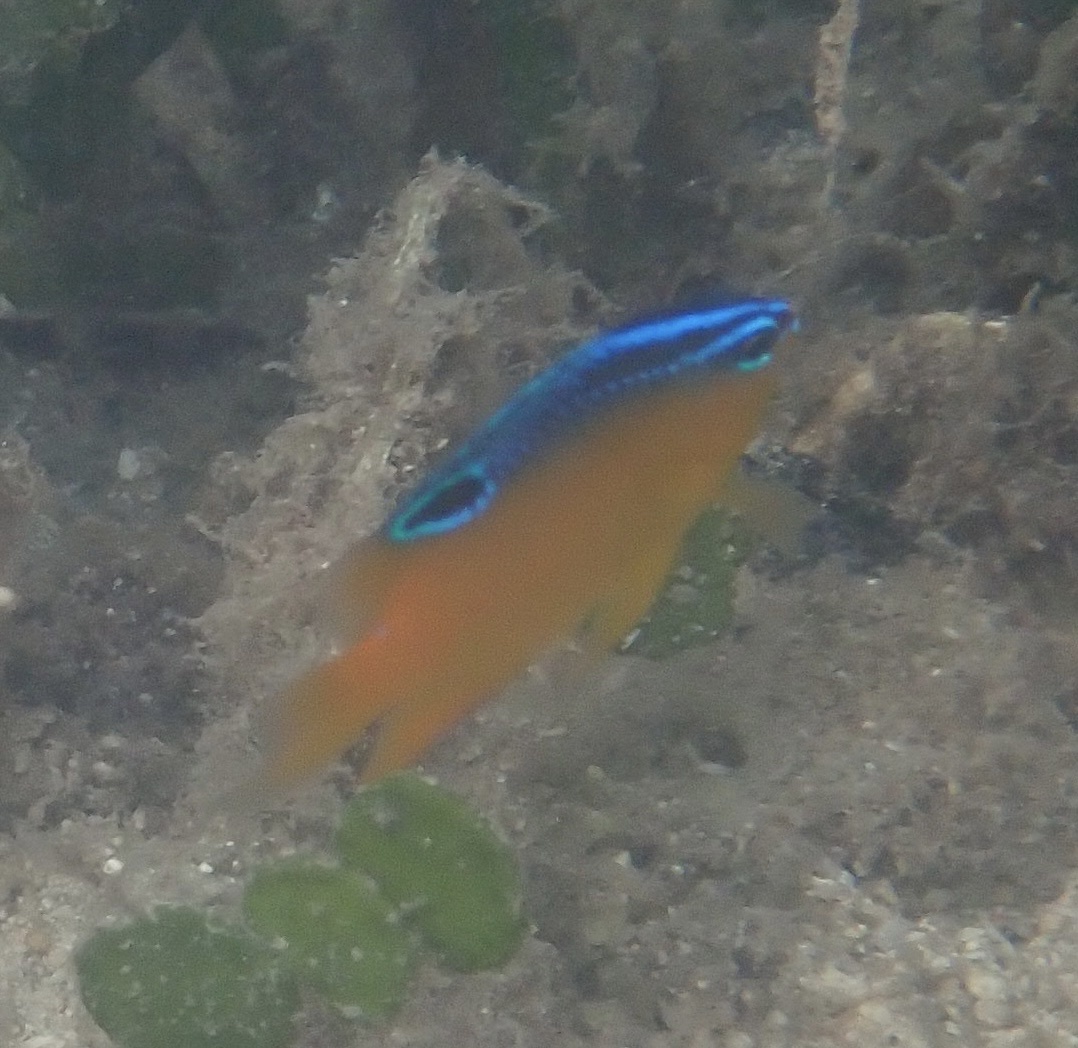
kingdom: Animalia
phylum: Chordata
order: Perciformes
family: Pomacentridae
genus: Pomacentrus
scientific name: Pomacentrus grammorhynchus
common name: Blue-spot damsel
